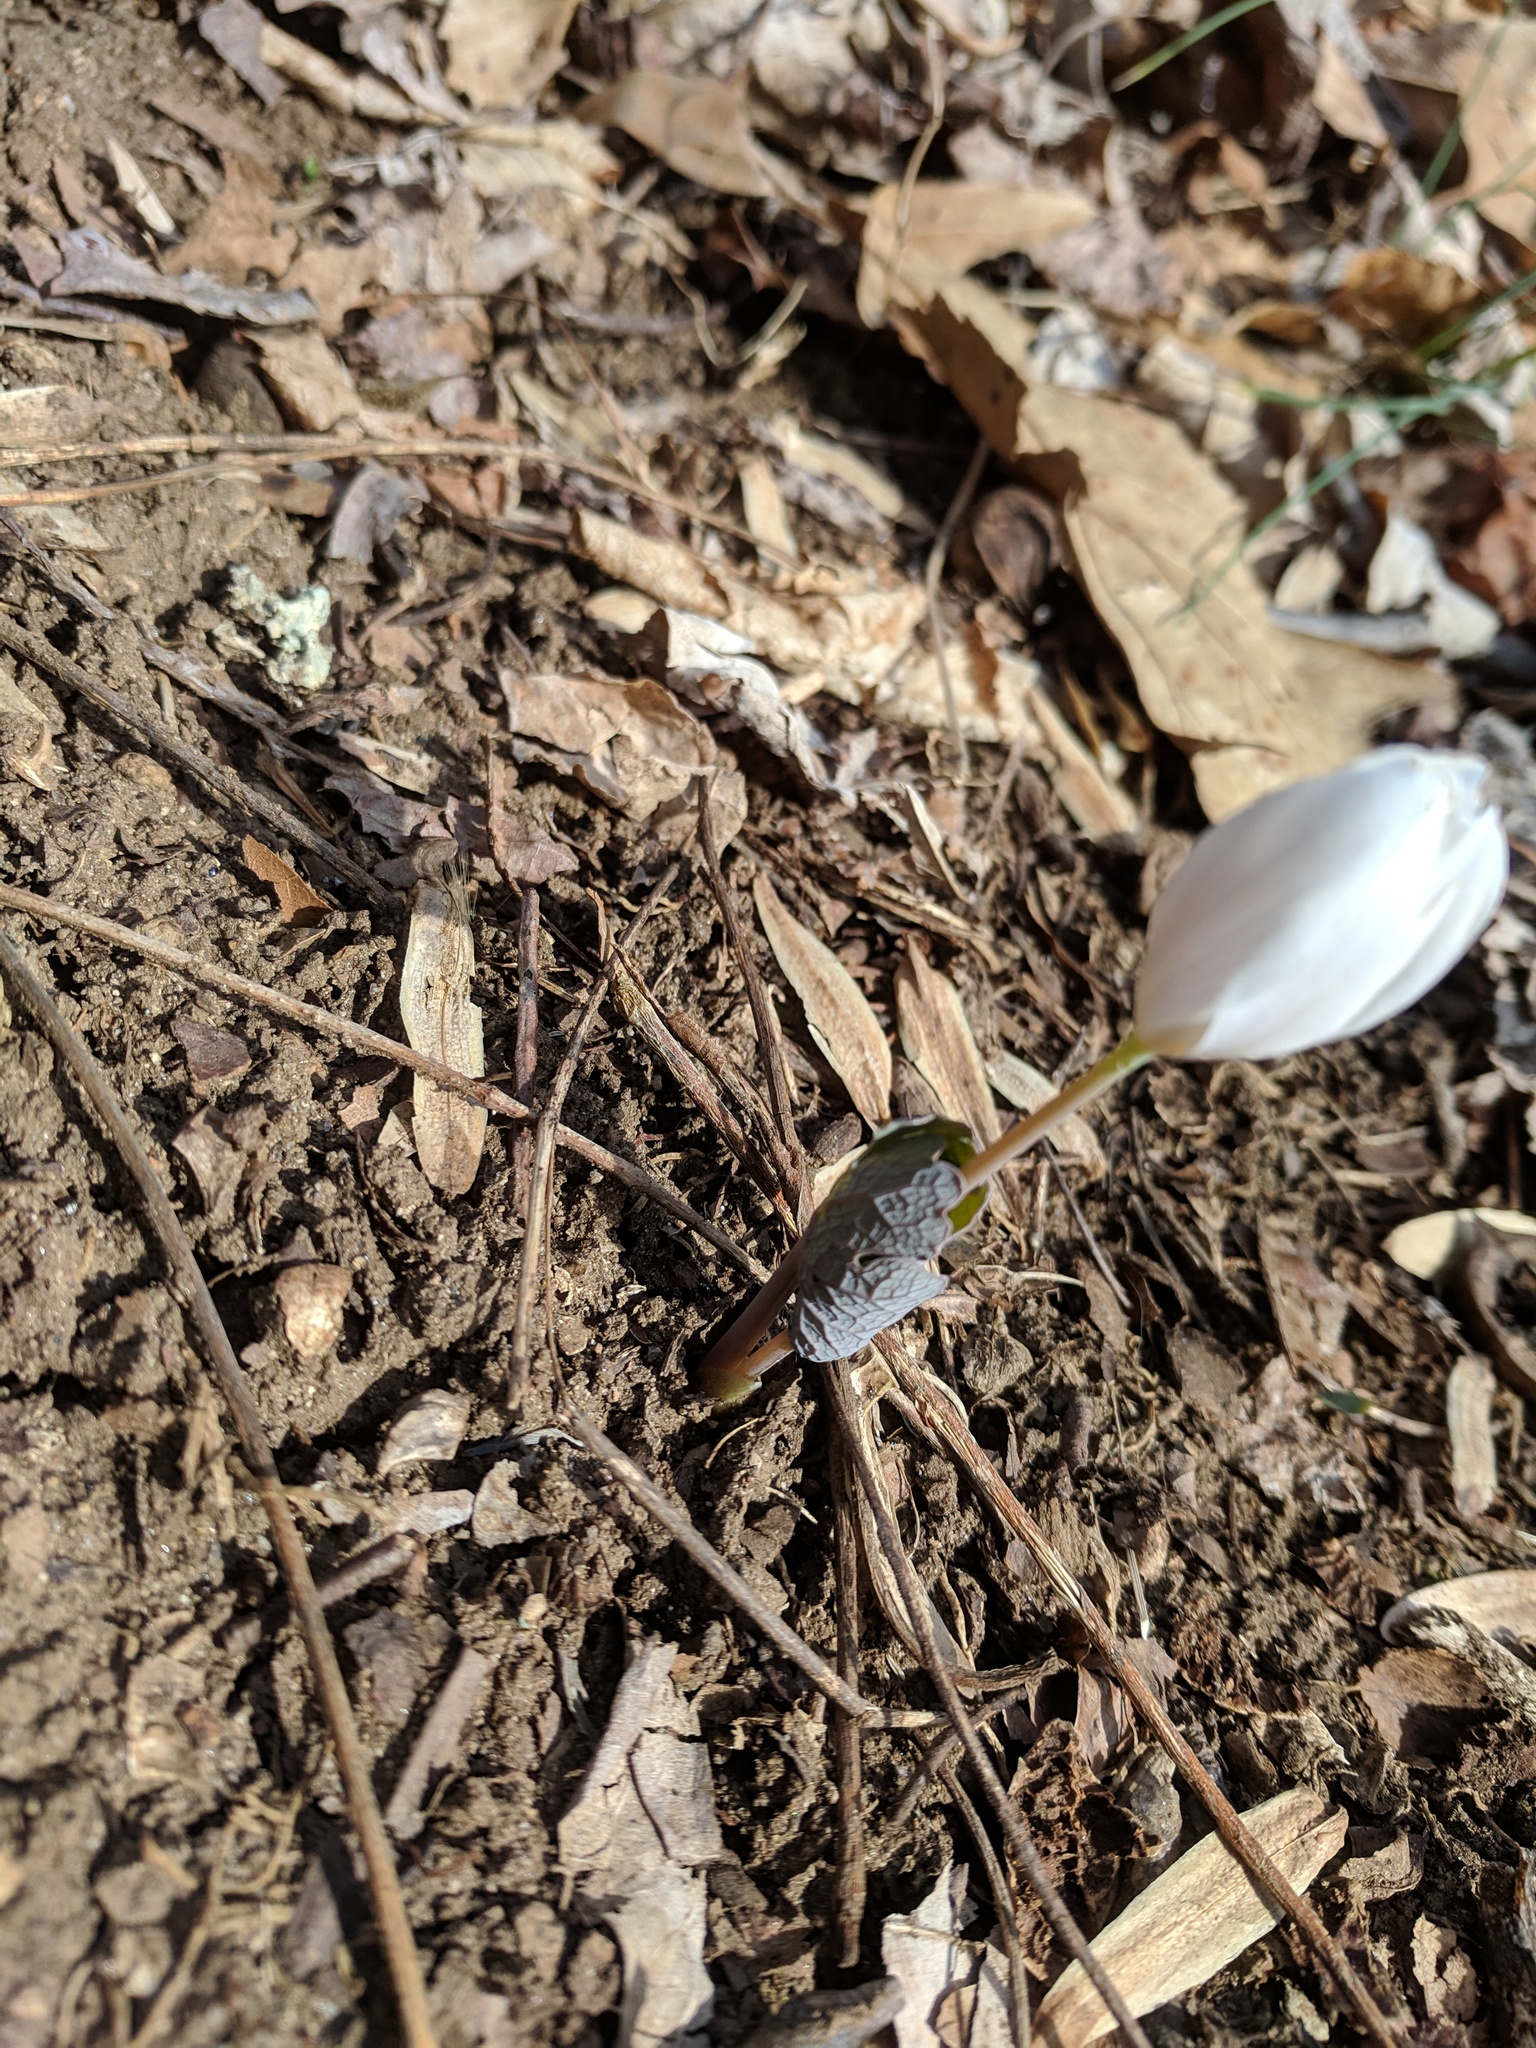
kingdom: Plantae
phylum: Tracheophyta
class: Magnoliopsida
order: Ranunculales
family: Papaveraceae
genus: Sanguinaria
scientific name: Sanguinaria canadensis
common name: Bloodroot
